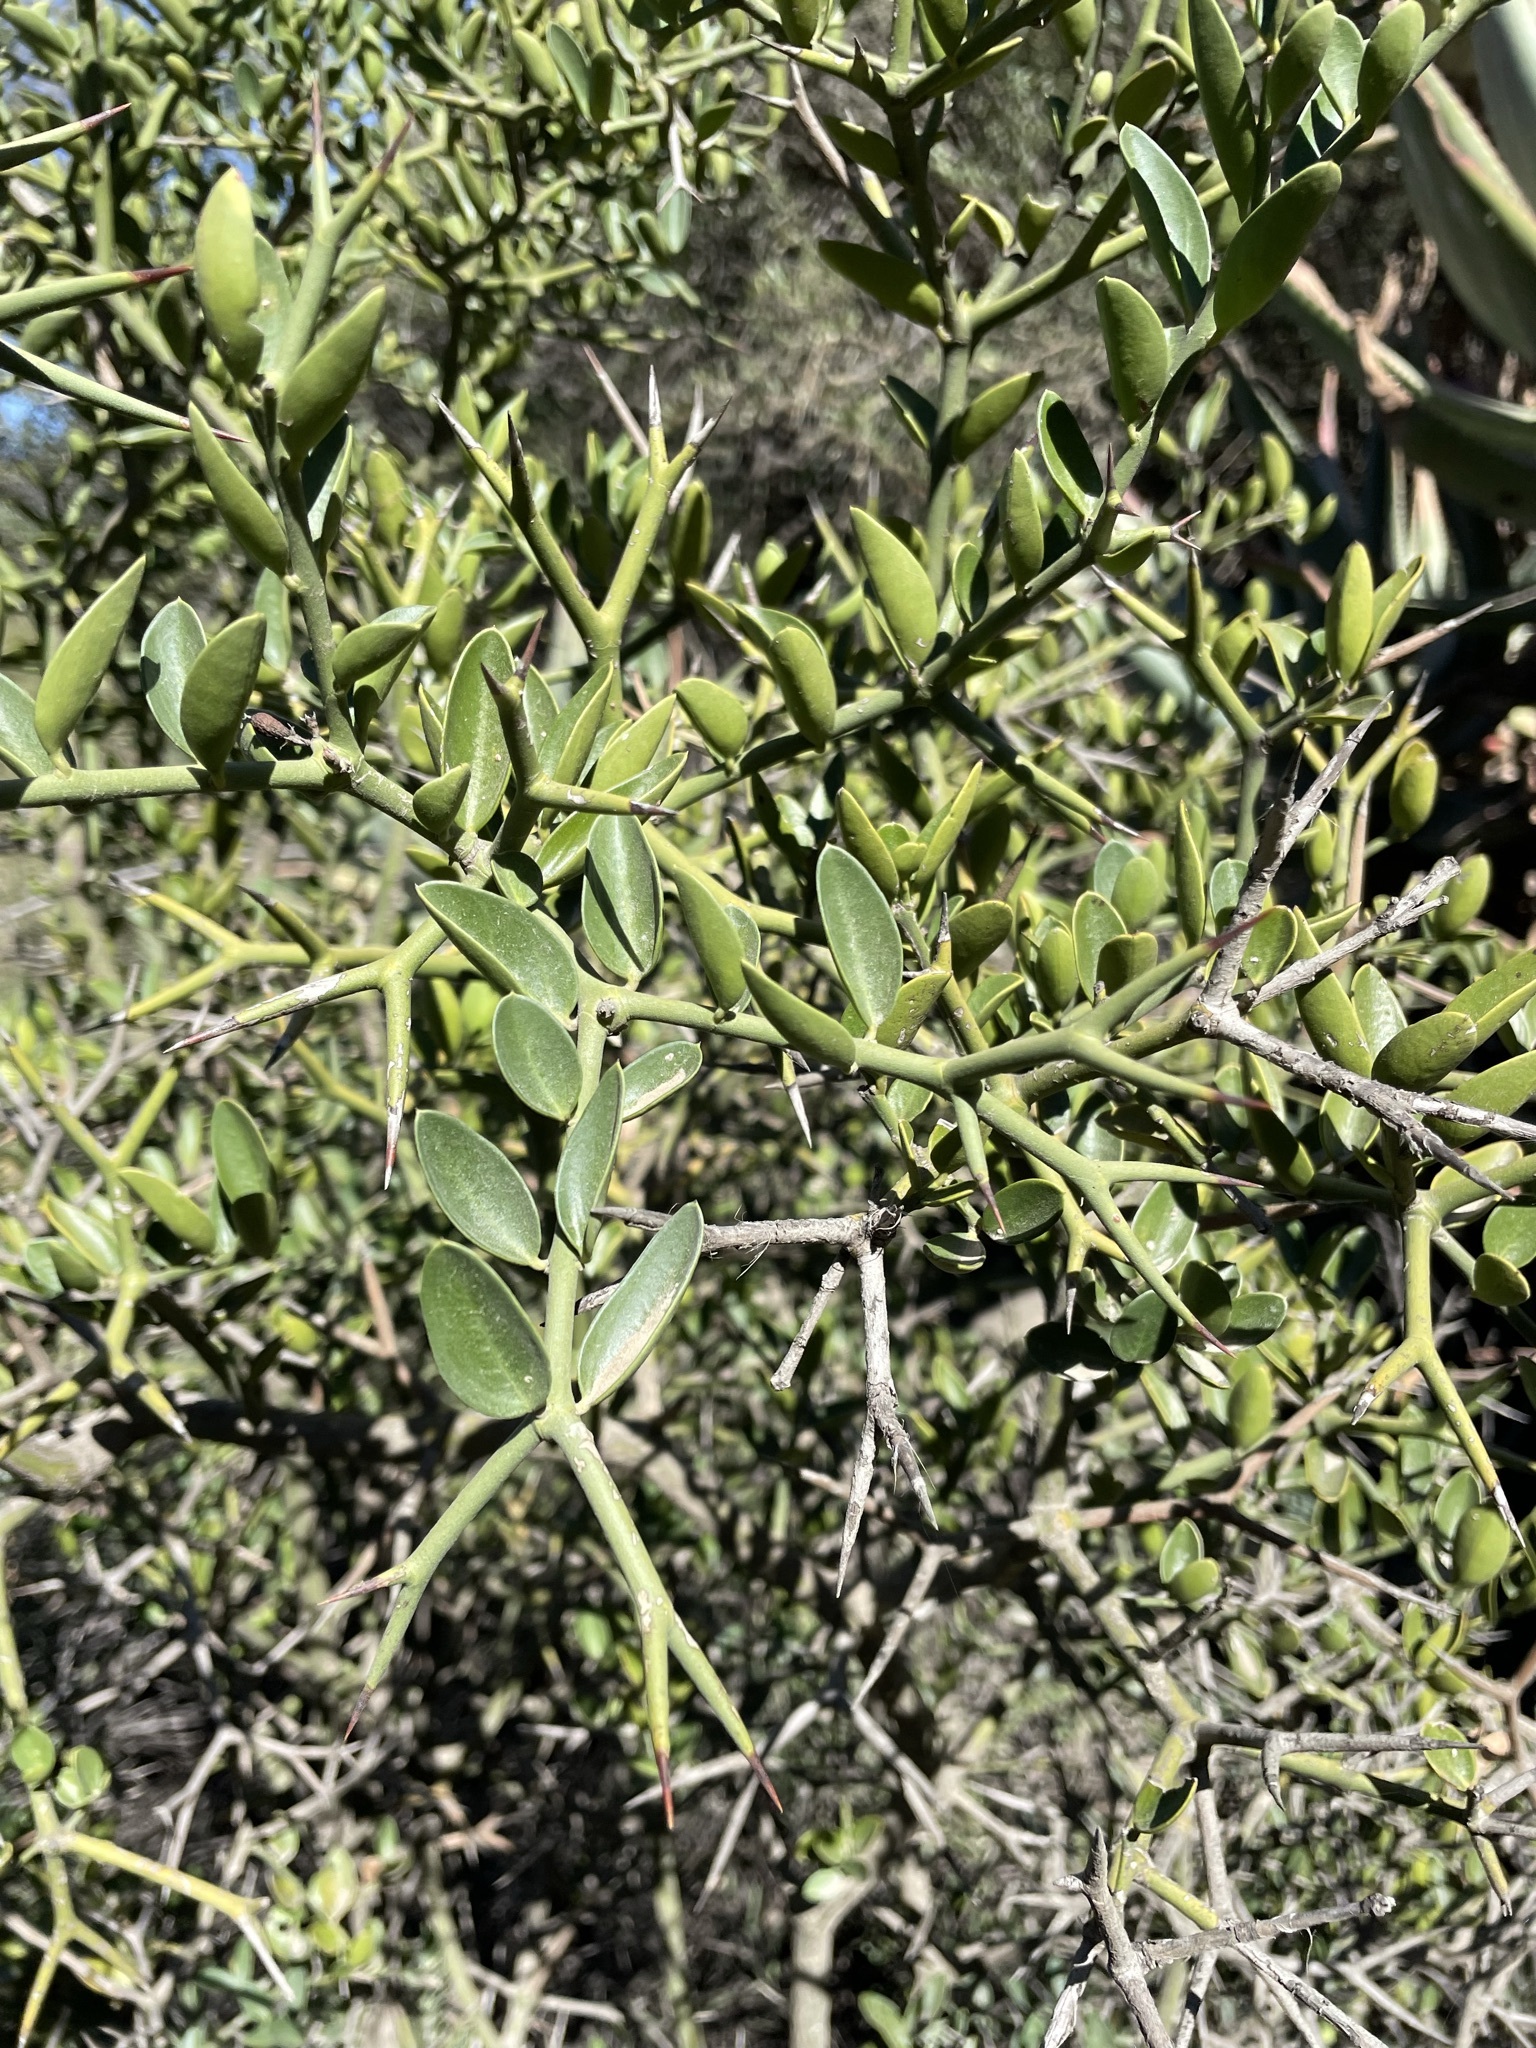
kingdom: Plantae
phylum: Tracheophyta
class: Magnoliopsida
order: Gentianales
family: Apocynaceae
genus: Carissa
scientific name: Carissa haematocarpa
